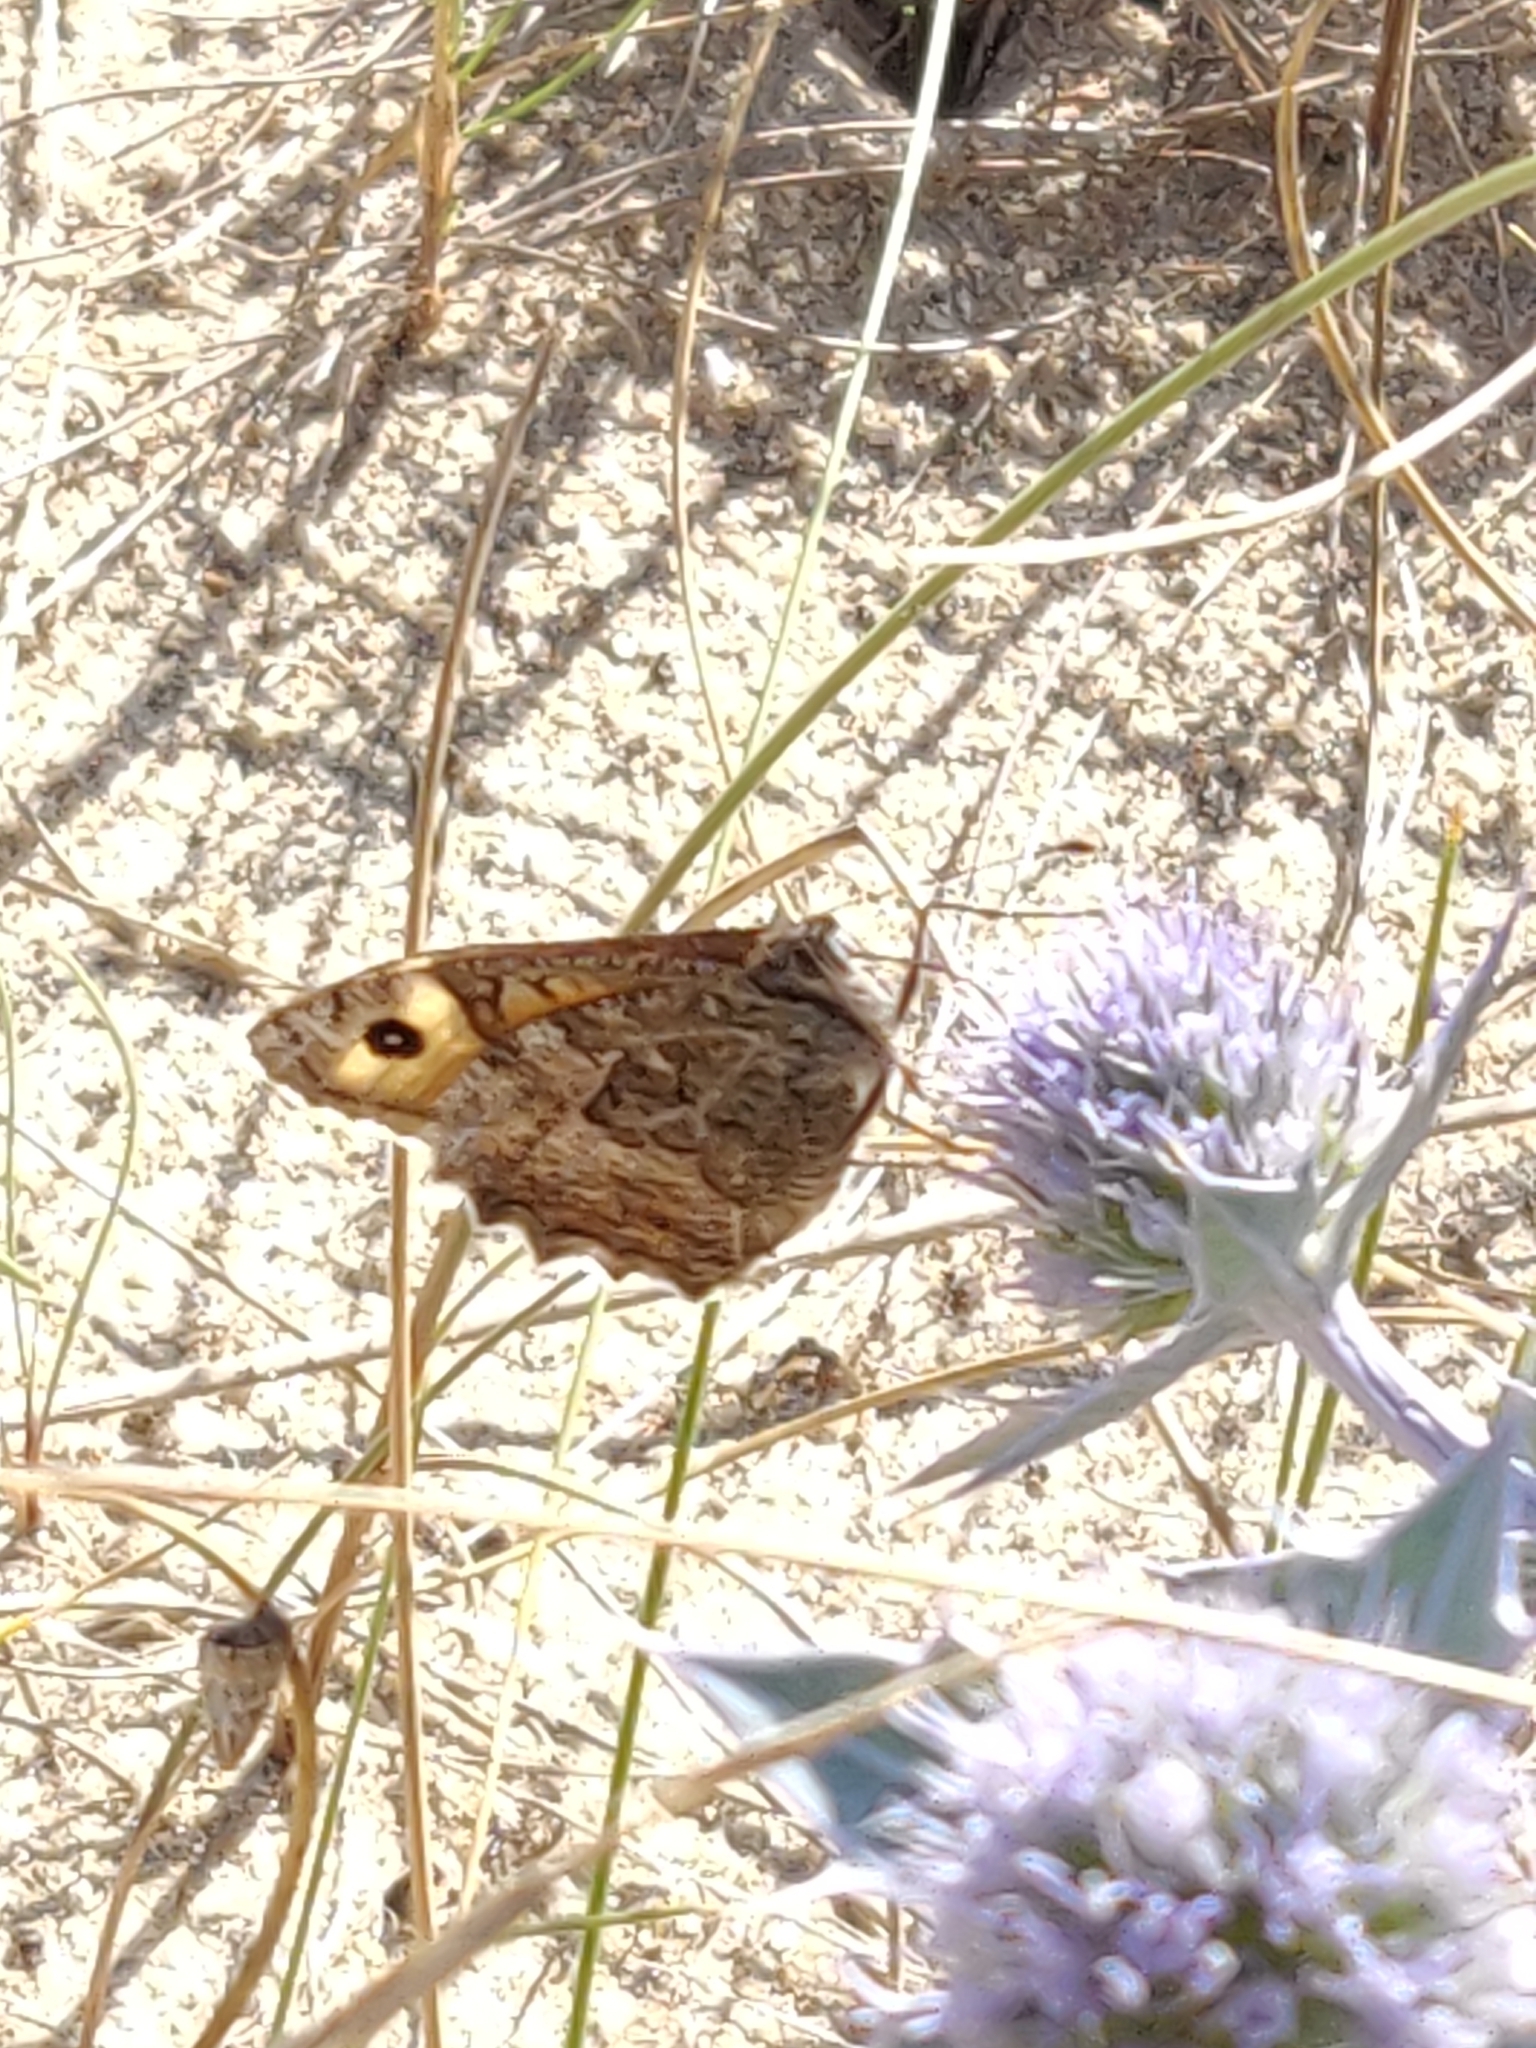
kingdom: Animalia
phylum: Arthropoda
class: Insecta
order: Lepidoptera
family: Nymphalidae
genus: Hipparchia
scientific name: Hipparchia semele
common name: Grayling
